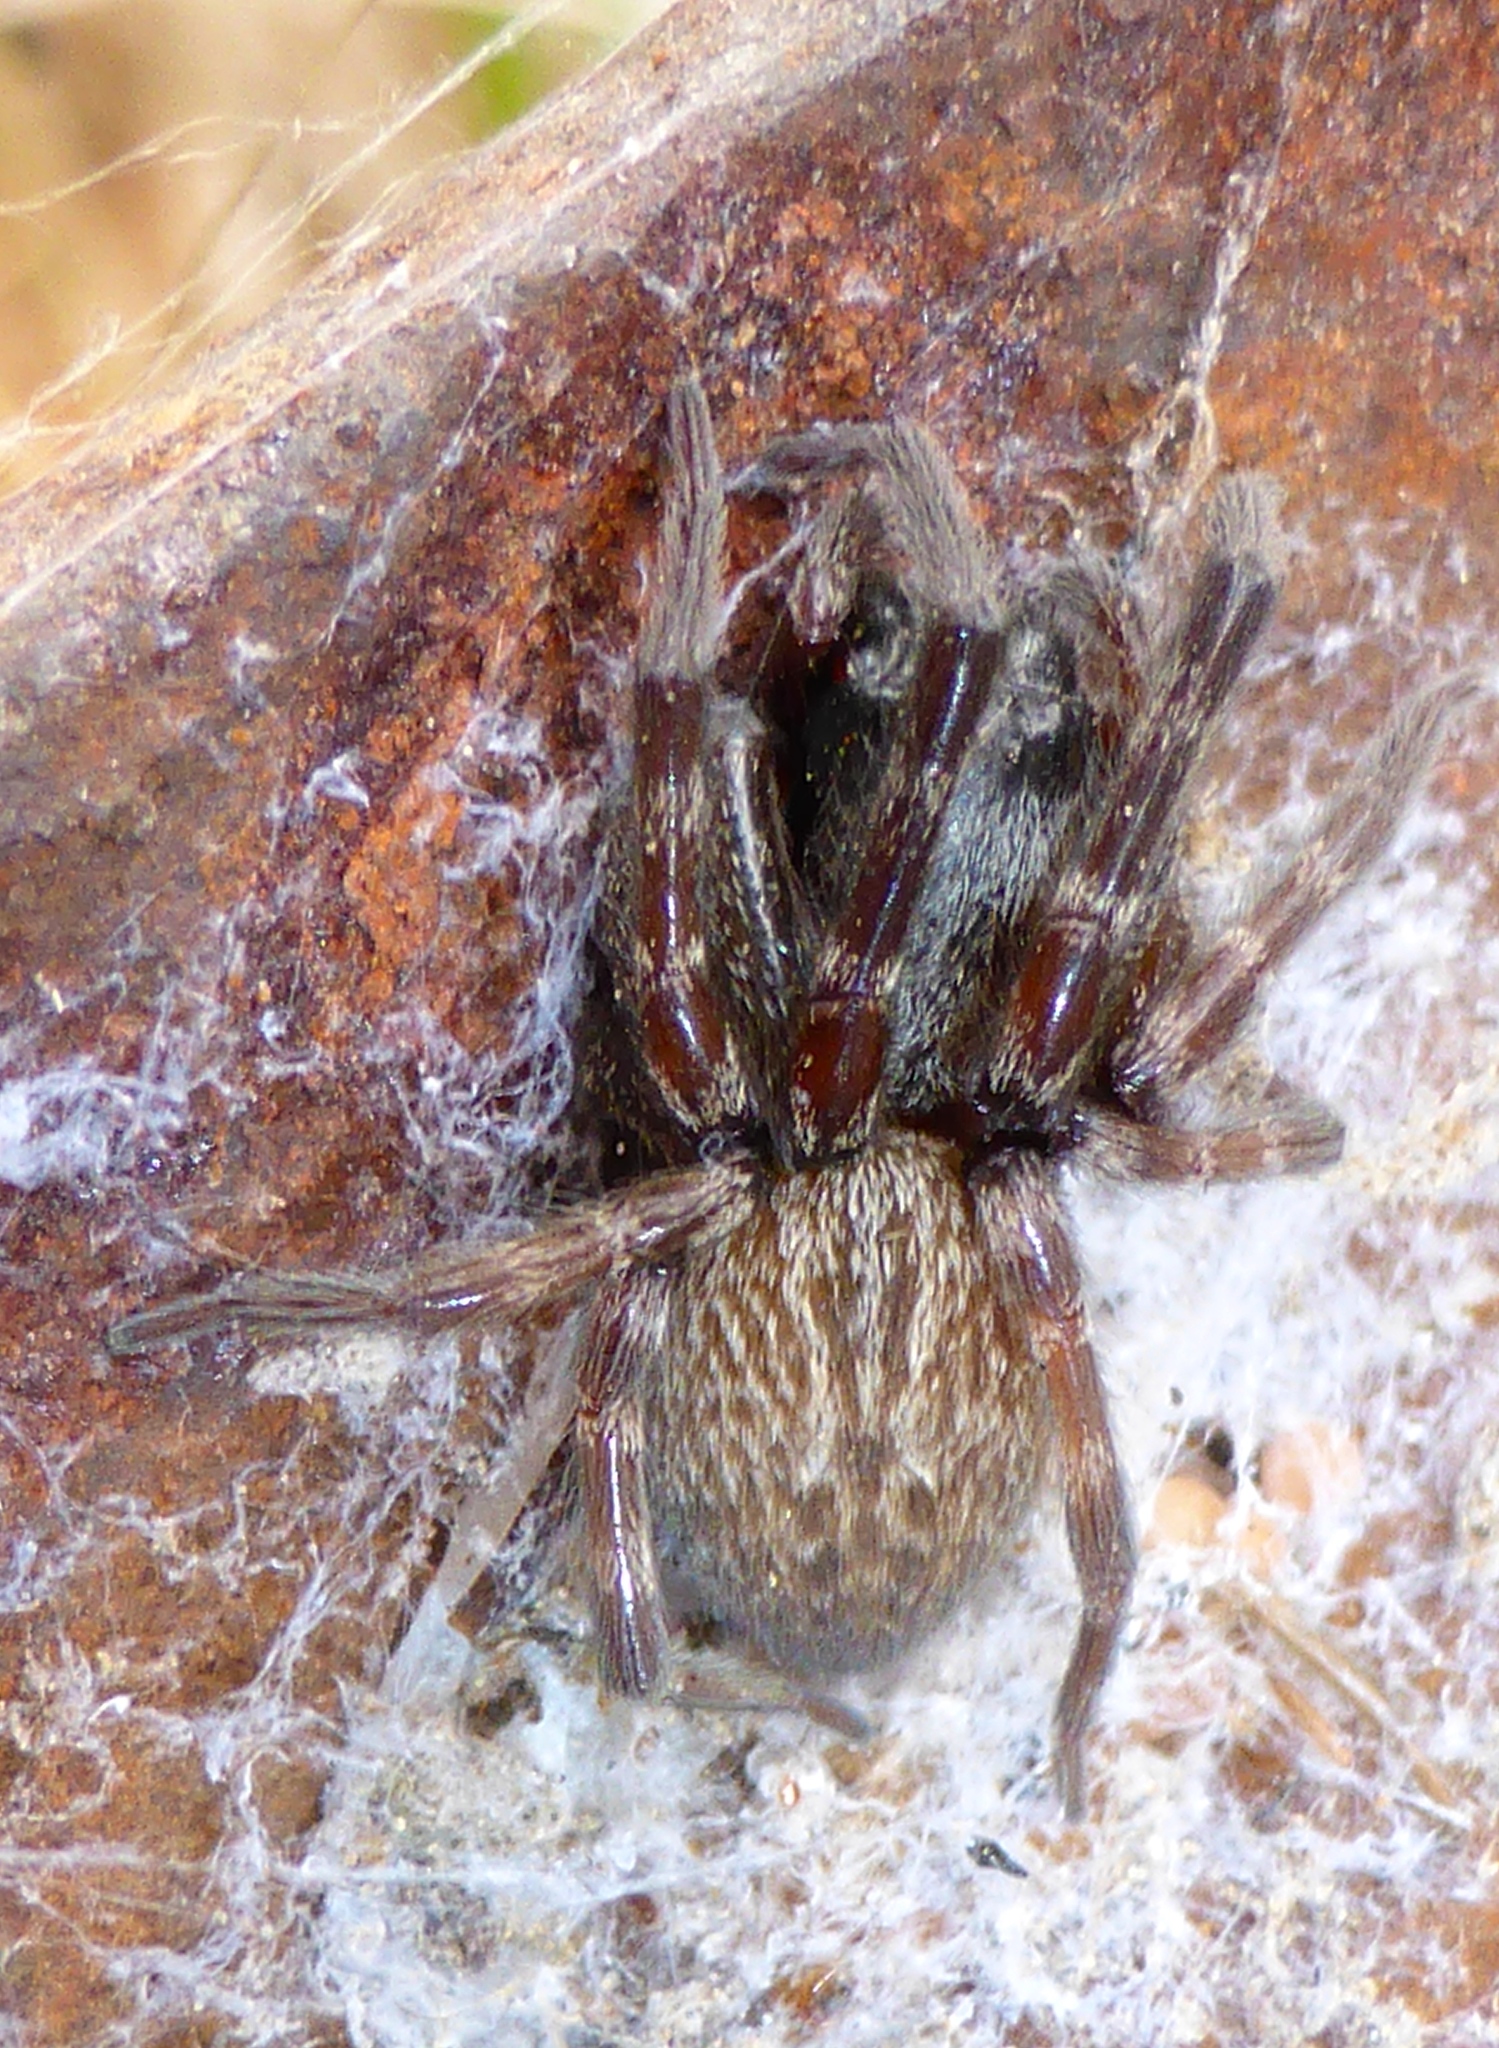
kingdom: Animalia
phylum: Arthropoda
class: Arachnida
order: Araneae
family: Desidae
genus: Badumna
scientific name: Badumna longinqua
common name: Gray house spider
